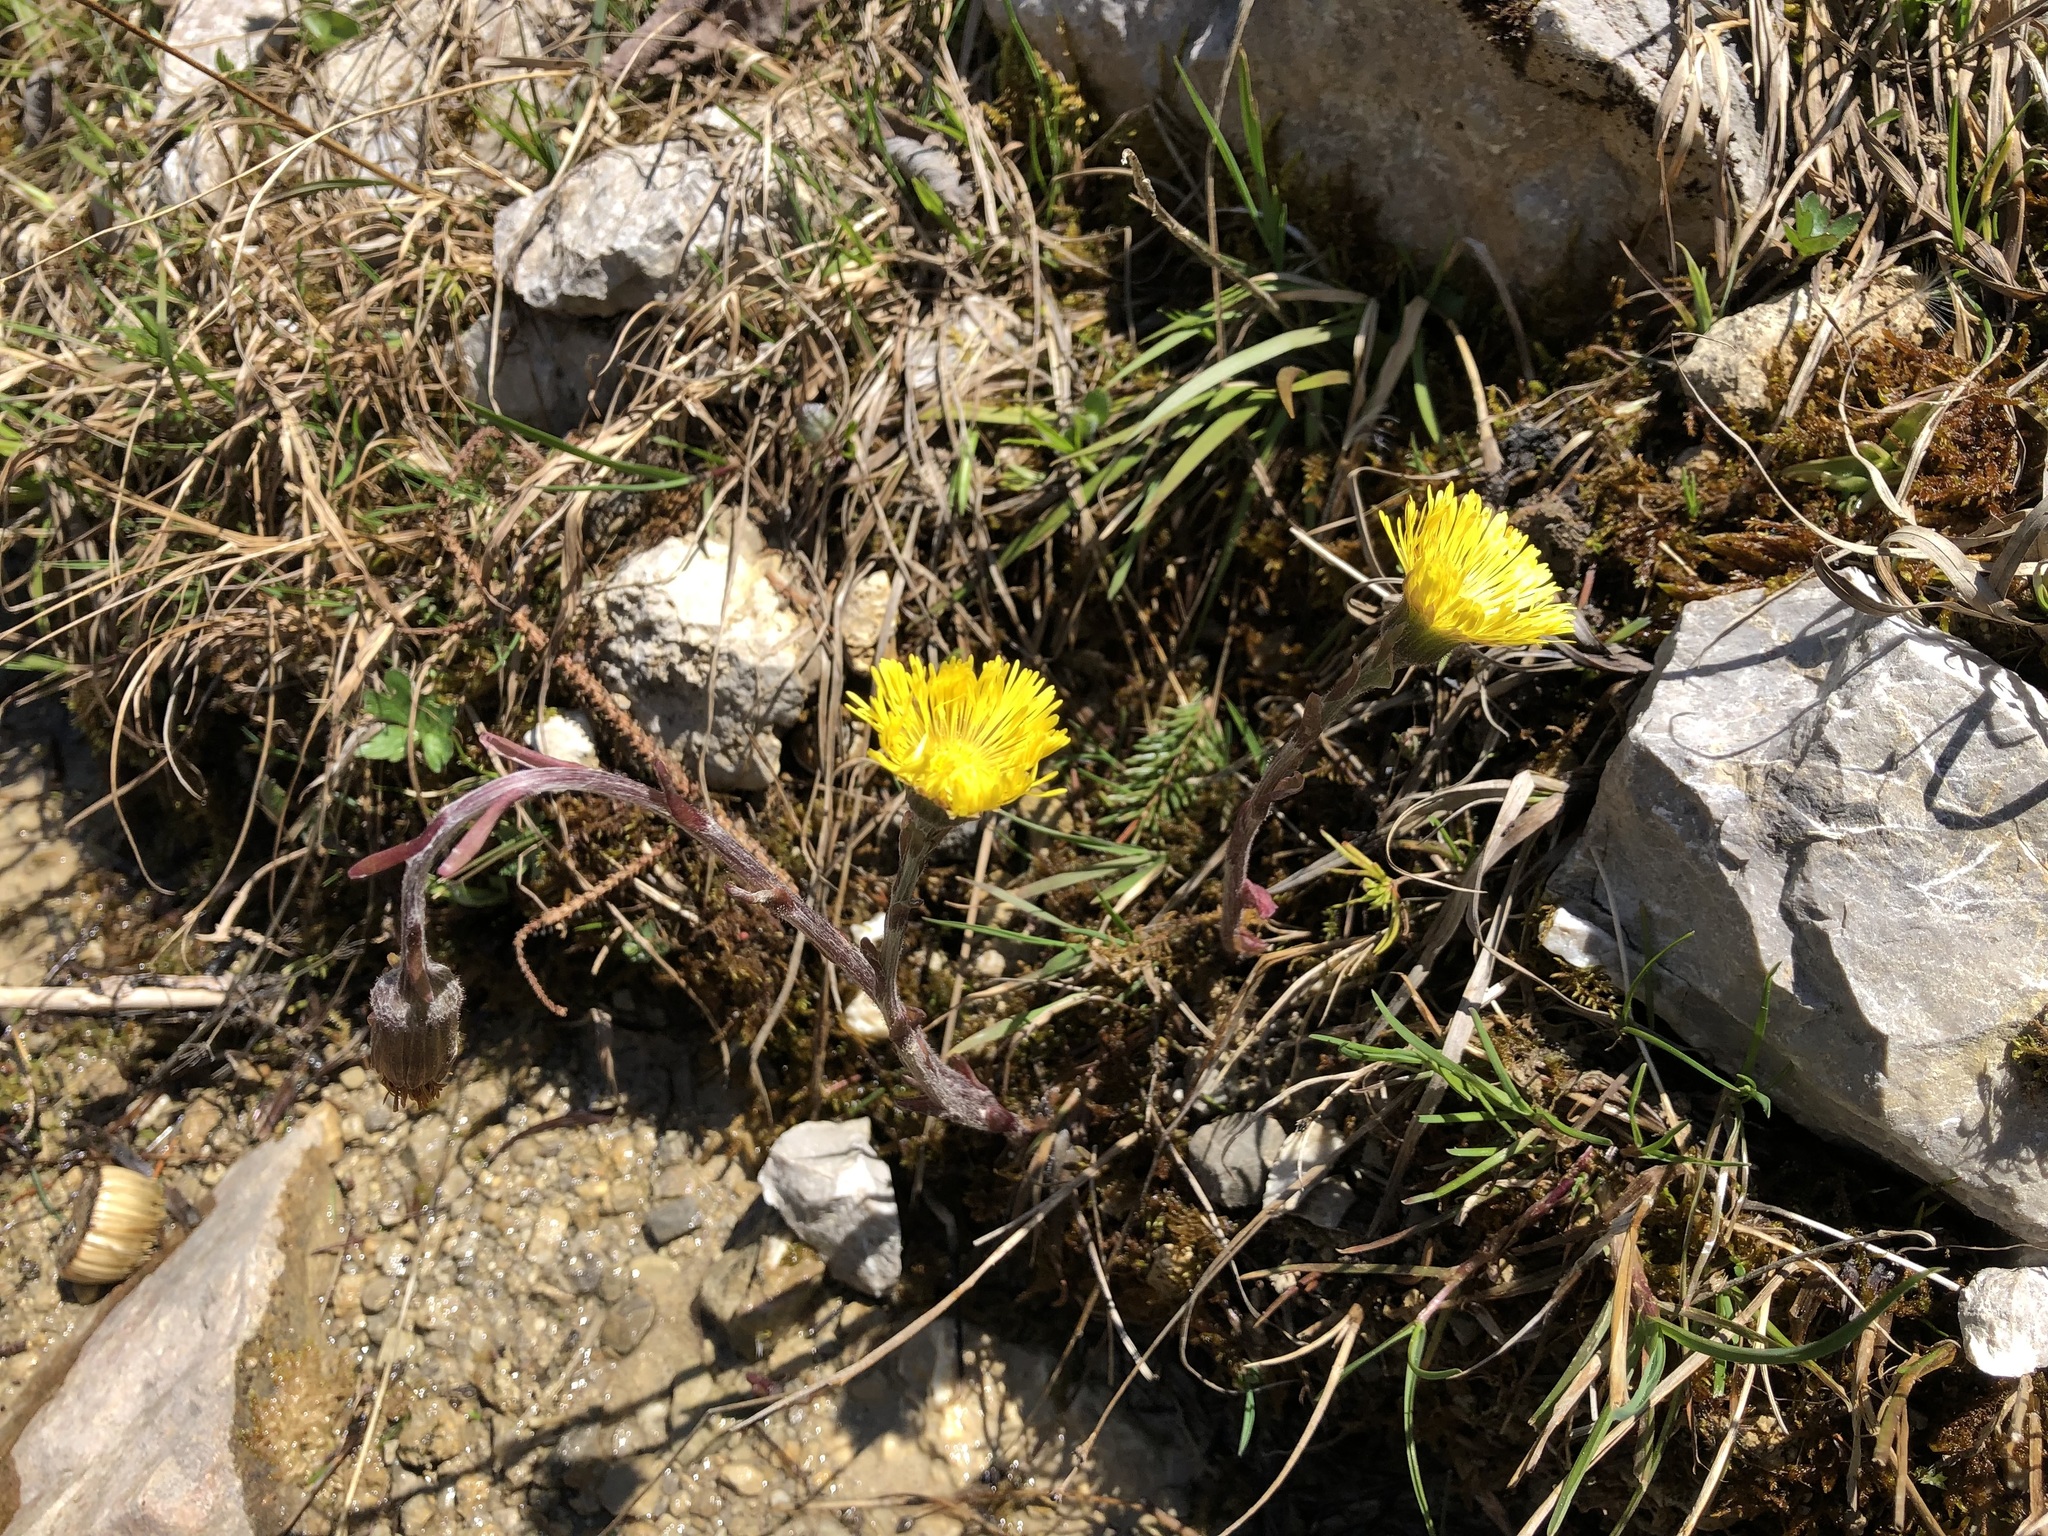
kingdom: Plantae
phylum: Tracheophyta
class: Magnoliopsida
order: Asterales
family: Asteraceae
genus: Tussilago
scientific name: Tussilago farfara
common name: Coltsfoot
